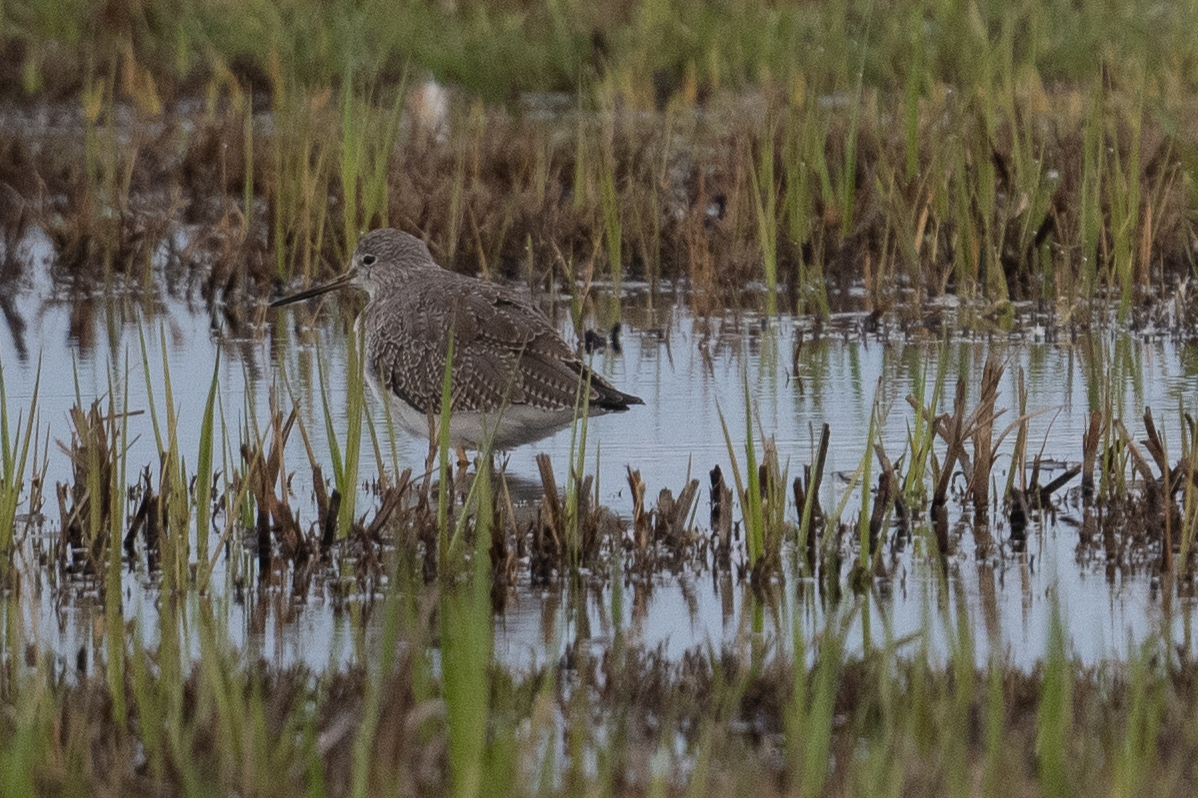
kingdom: Animalia
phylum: Chordata
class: Aves
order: Charadriiformes
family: Scolopacidae
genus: Tringa
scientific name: Tringa melanoleuca
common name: Greater yellowlegs
